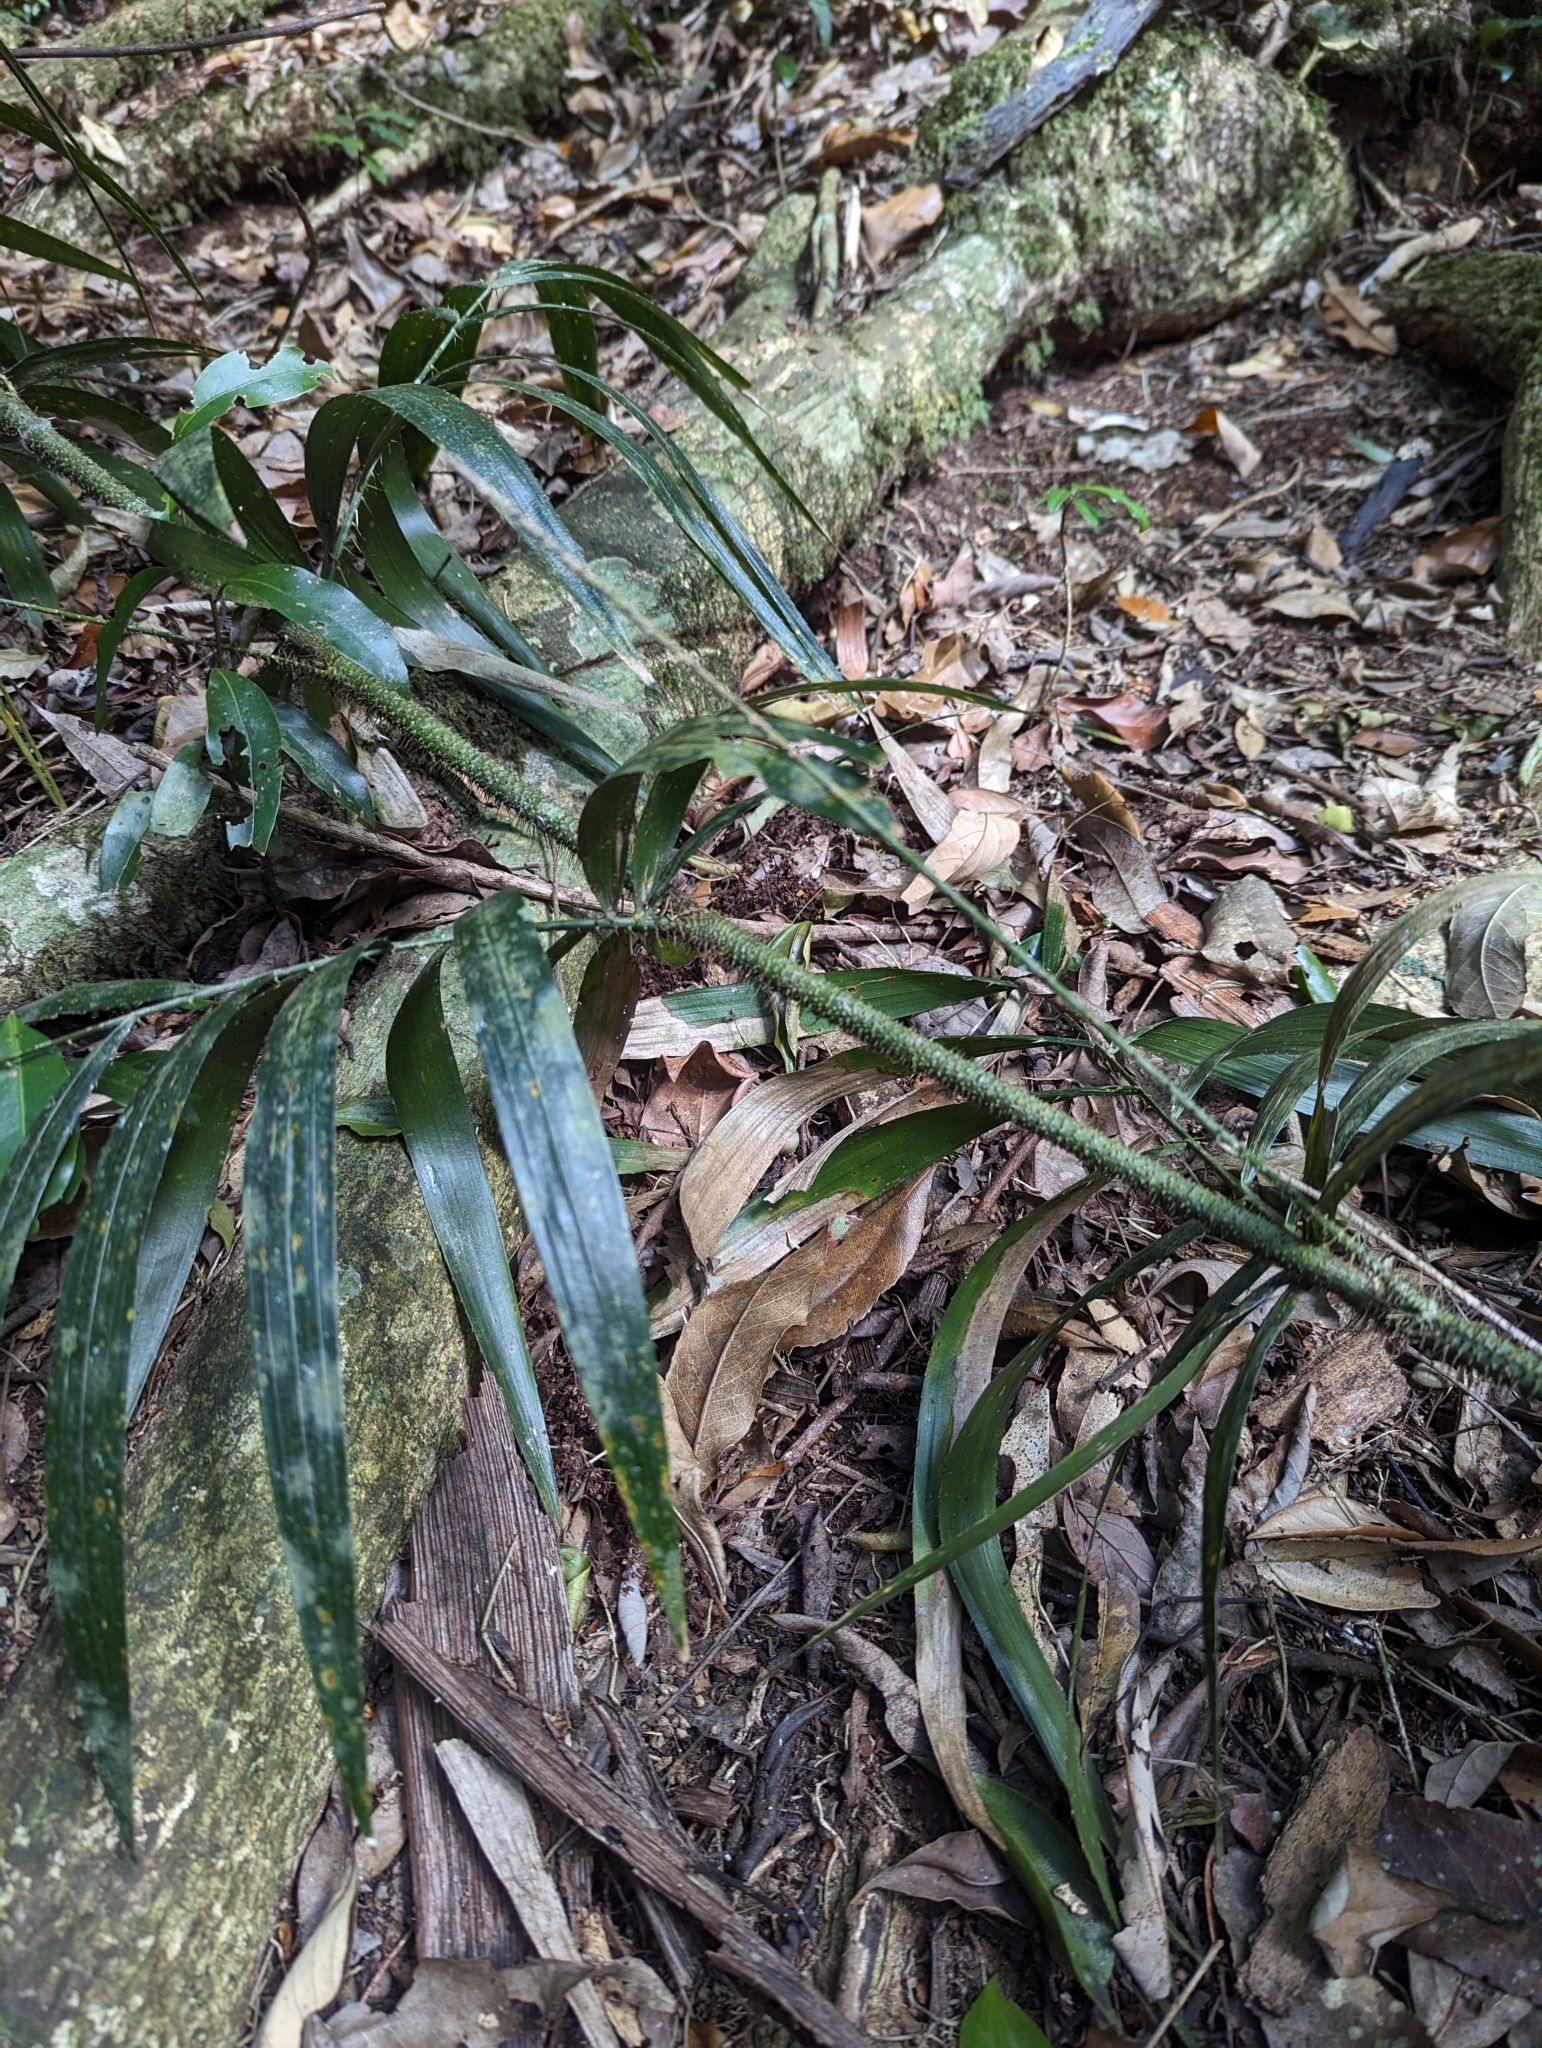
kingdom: Plantae
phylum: Tracheophyta
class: Liliopsida
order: Arecales
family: Arecaceae
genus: Calamus
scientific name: Calamus muelleri
